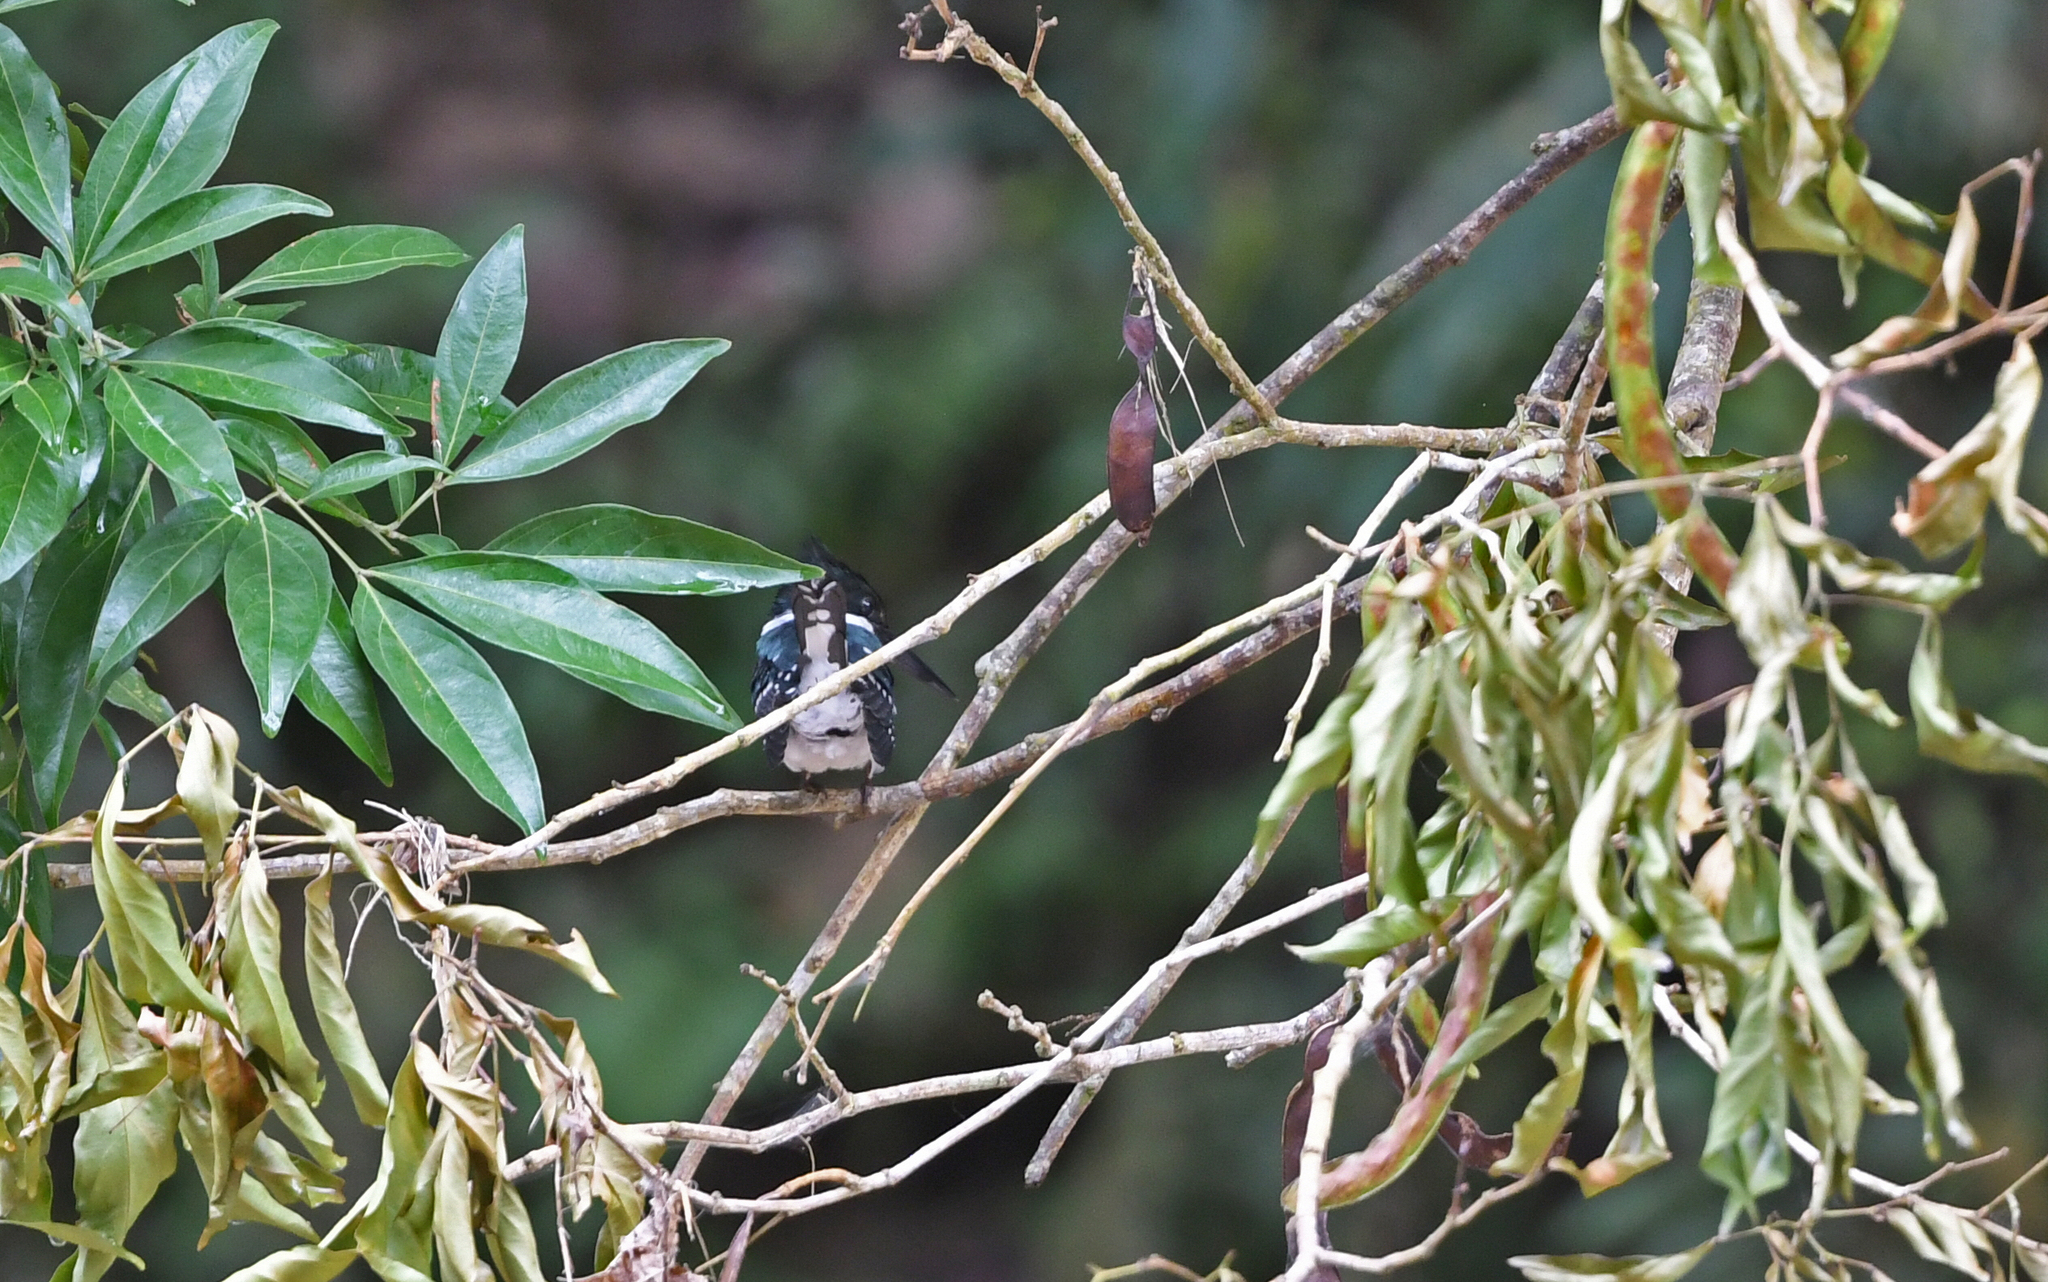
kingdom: Animalia
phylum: Chordata
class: Aves
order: Coraciiformes
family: Alcedinidae
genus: Chloroceryle
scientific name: Chloroceryle americana
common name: Green kingfisher
